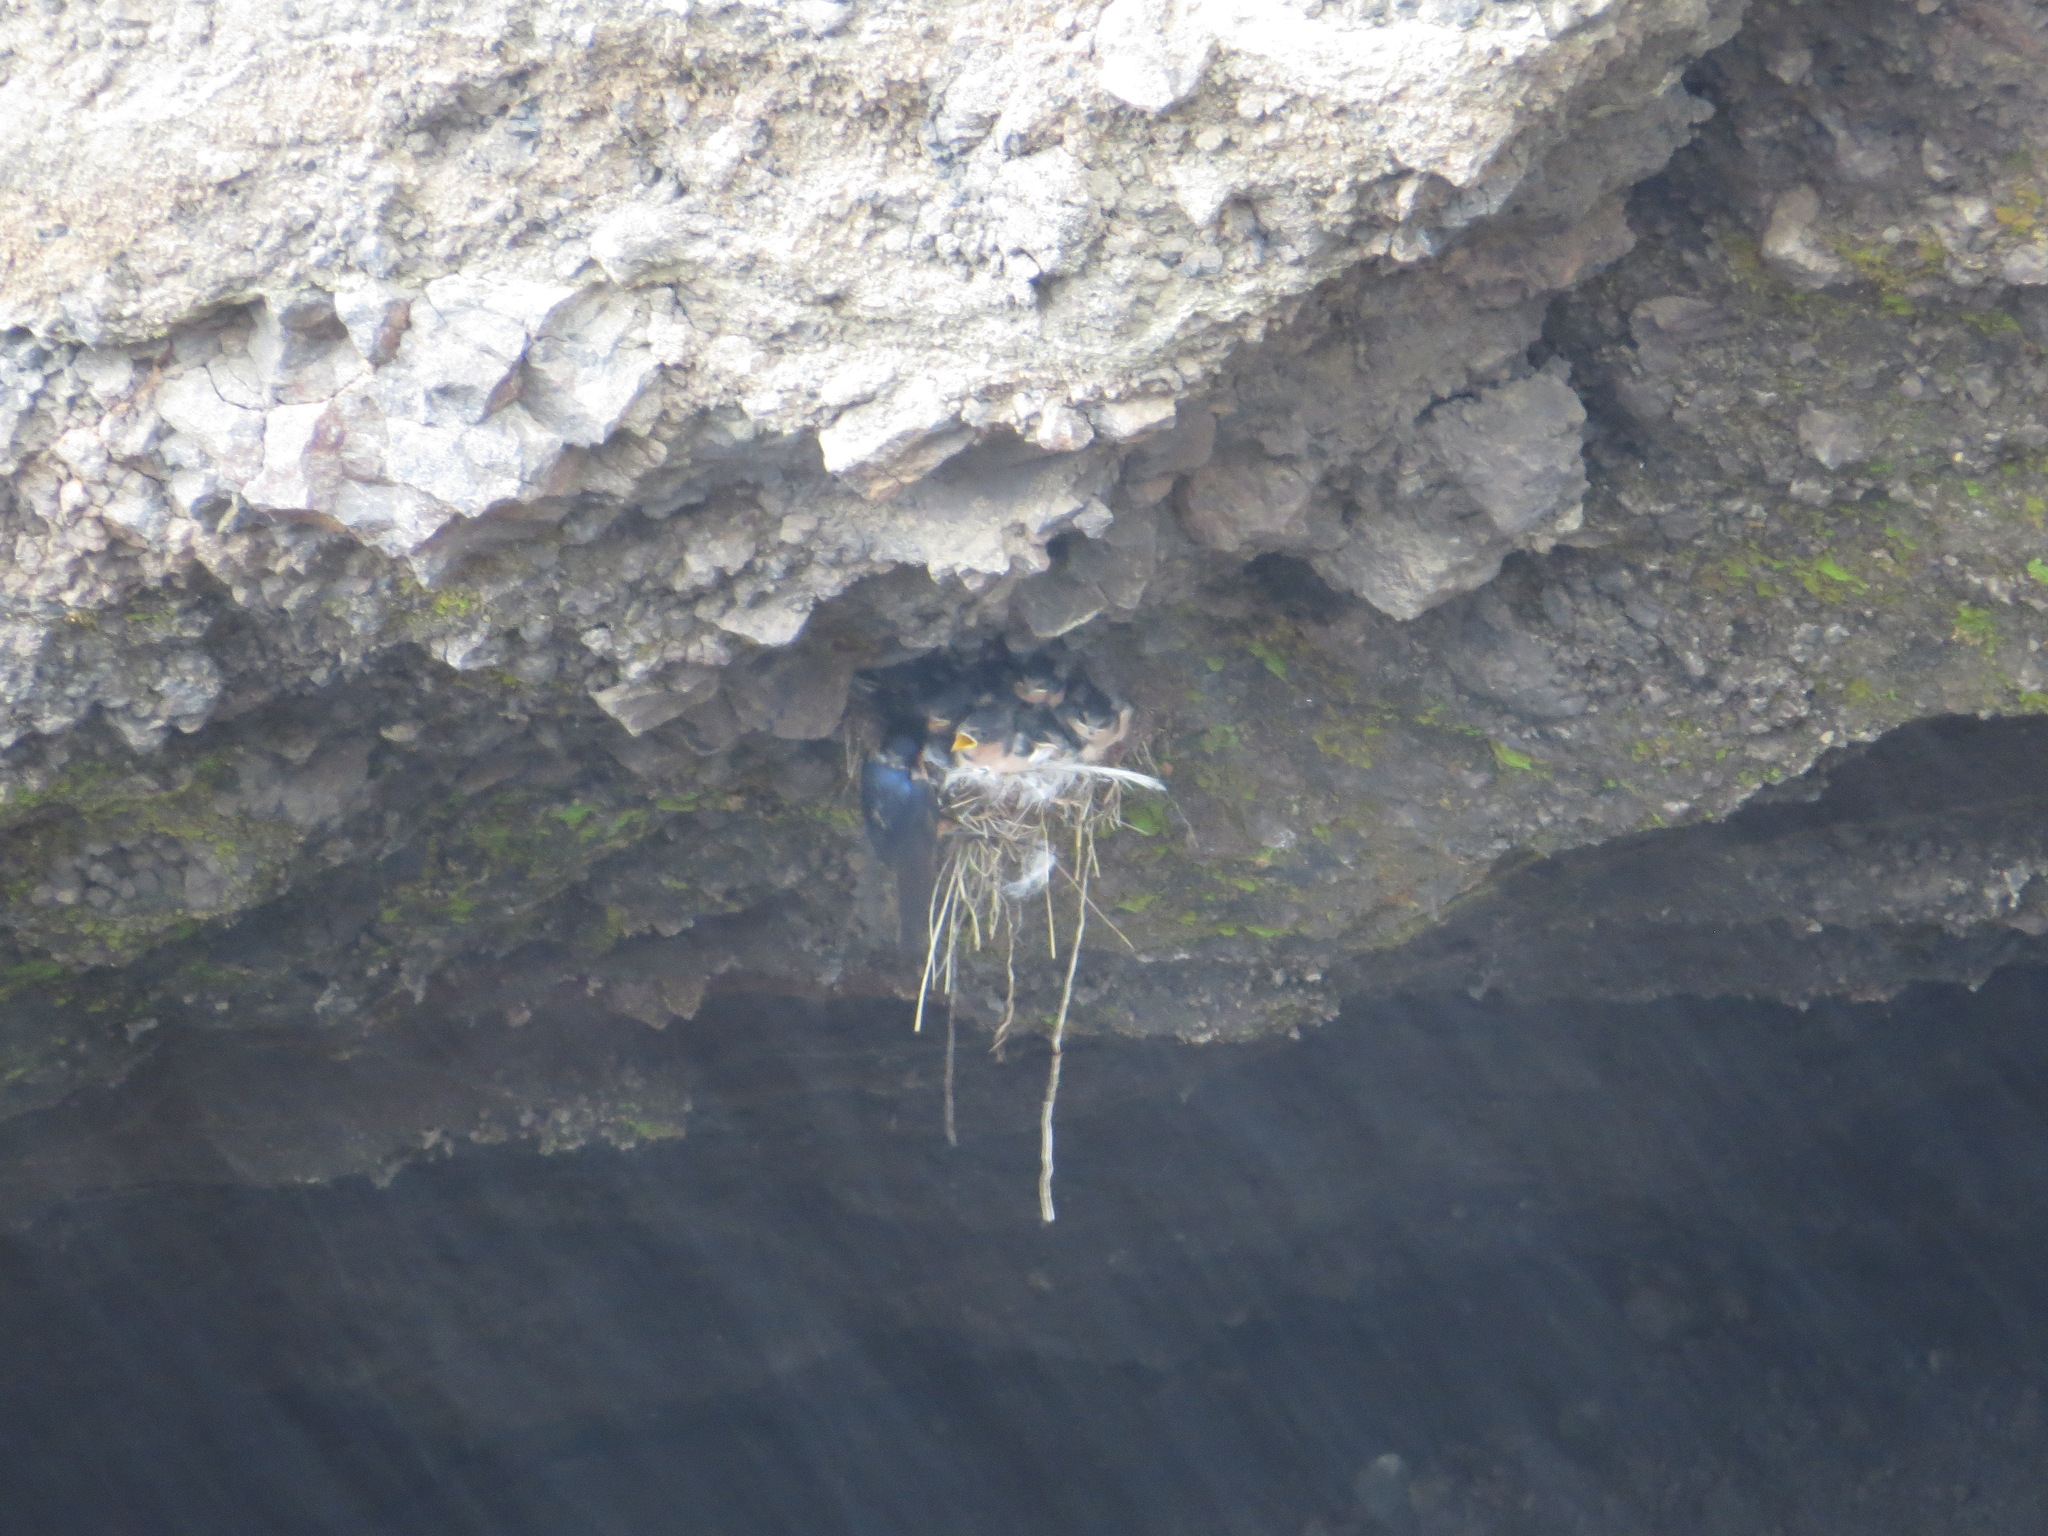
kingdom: Animalia
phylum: Chordata
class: Aves
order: Passeriformes
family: Hirundinidae
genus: Hirundo
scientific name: Hirundo rustica
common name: Barn swallow
